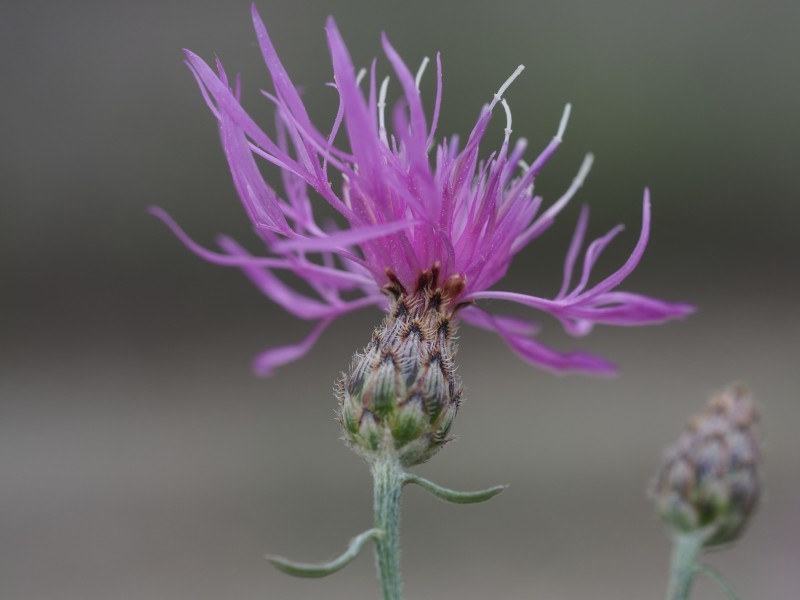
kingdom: Plantae
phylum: Tracheophyta
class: Magnoliopsida
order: Asterales
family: Asteraceae
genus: Centaurea
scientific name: Centaurea stoebe
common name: Spotted knapweed
